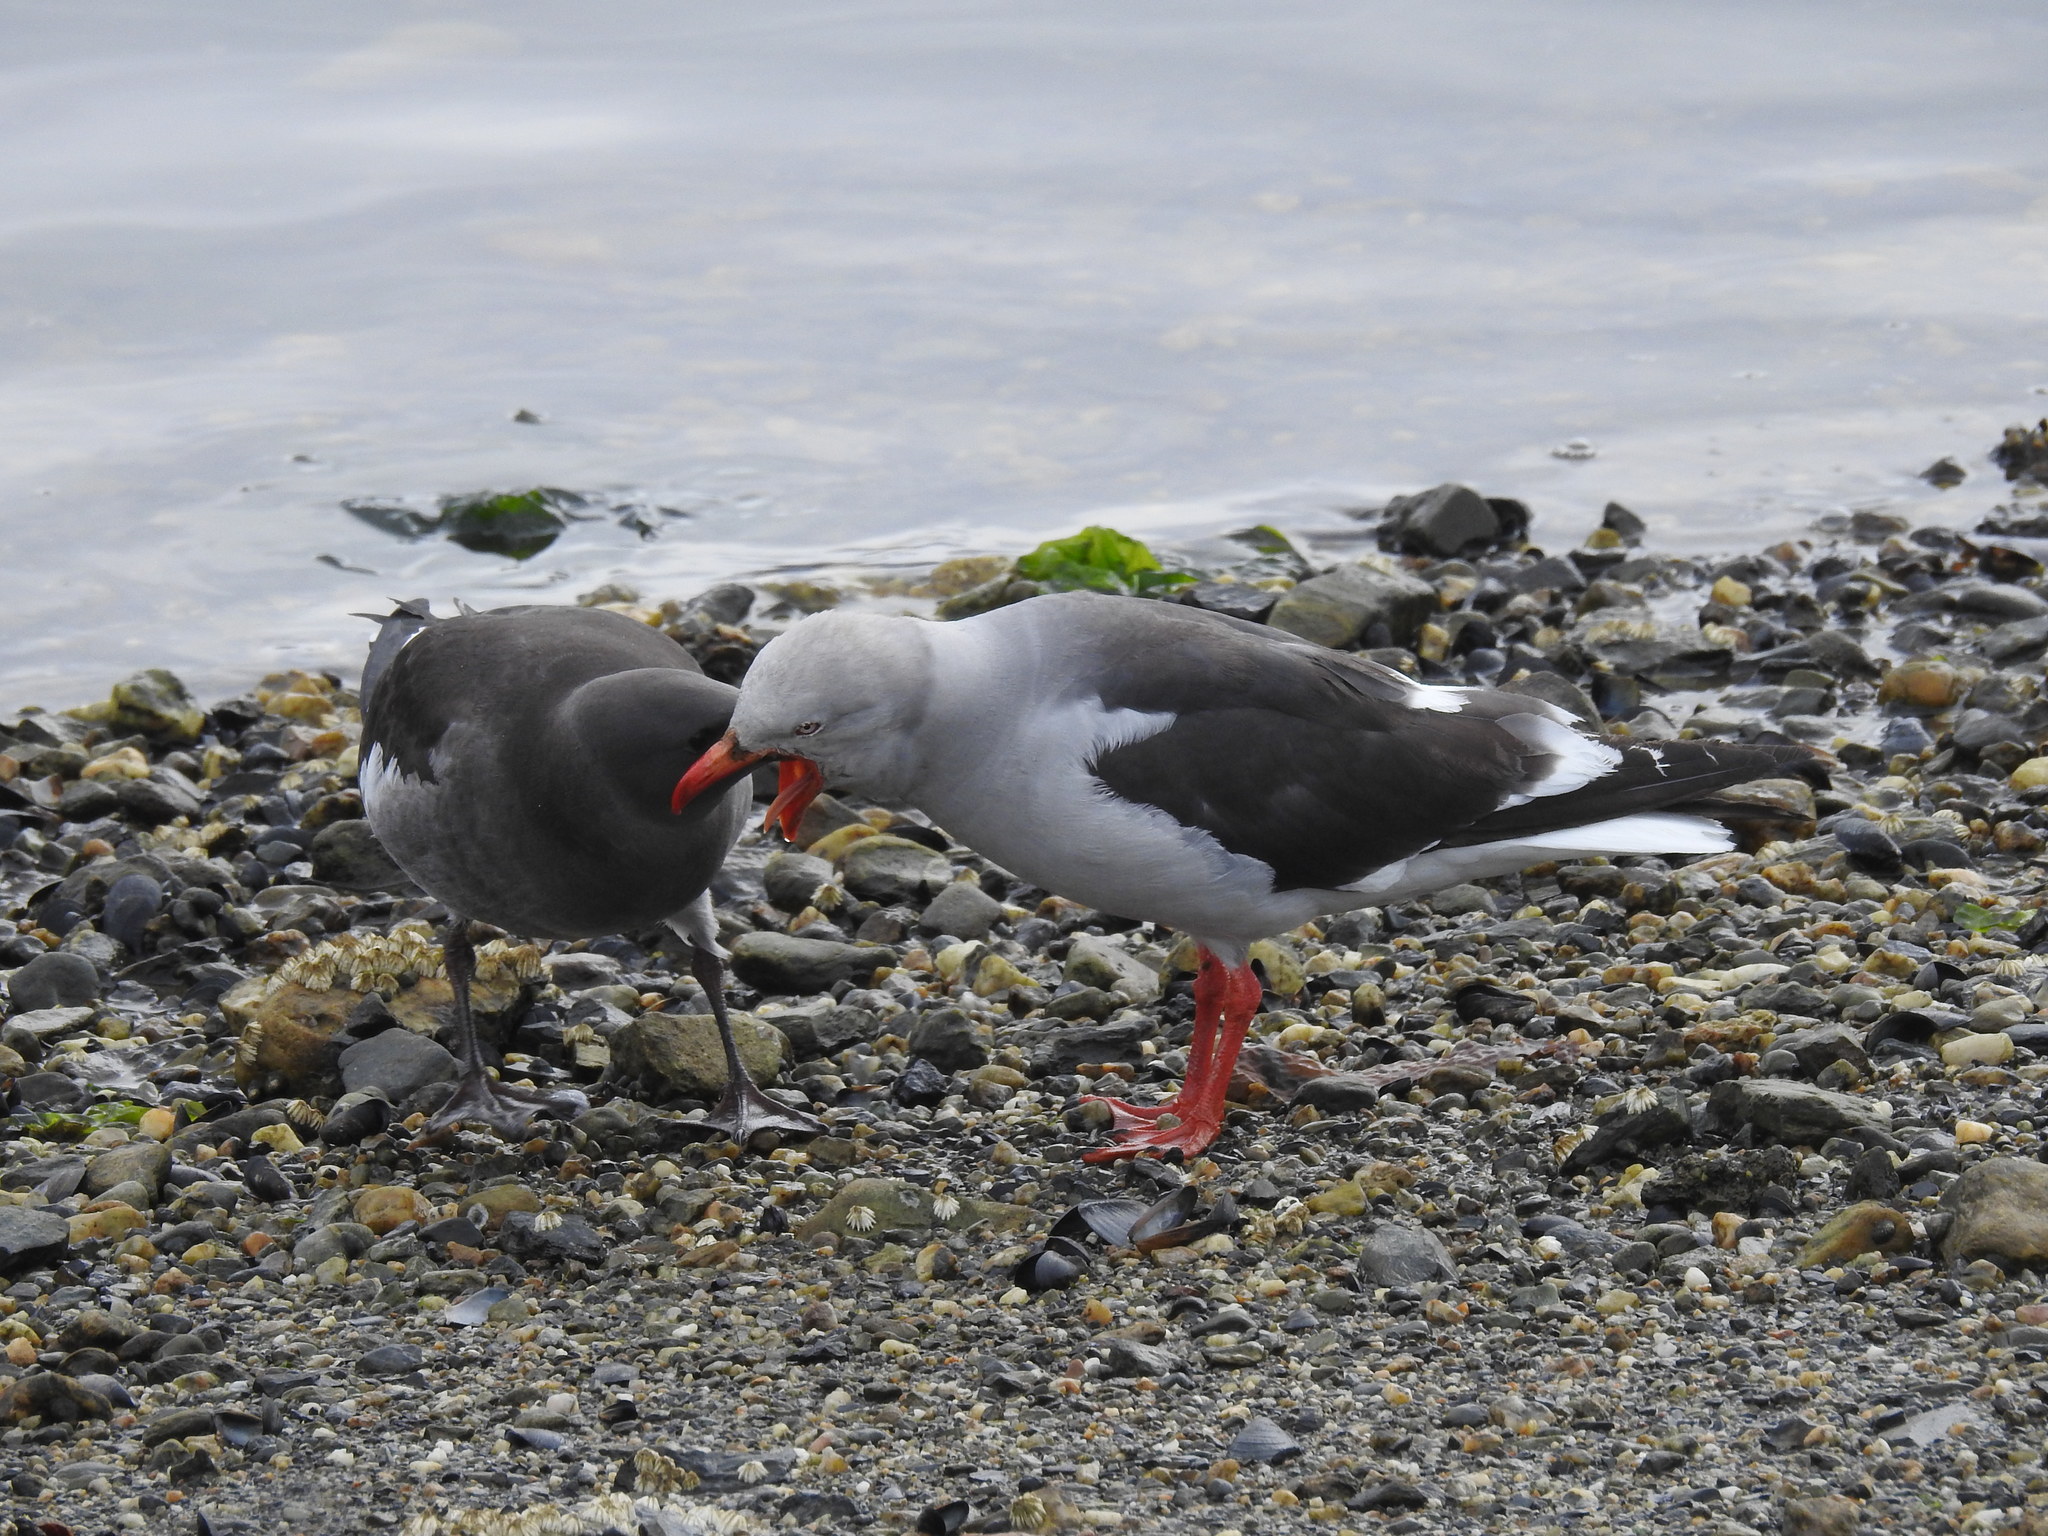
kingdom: Animalia
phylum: Chordata
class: Aves
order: Charadriiformes
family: Laridae
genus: Leucophaeus
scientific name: Leucophaeus scoresbii
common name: Dolphin gull
